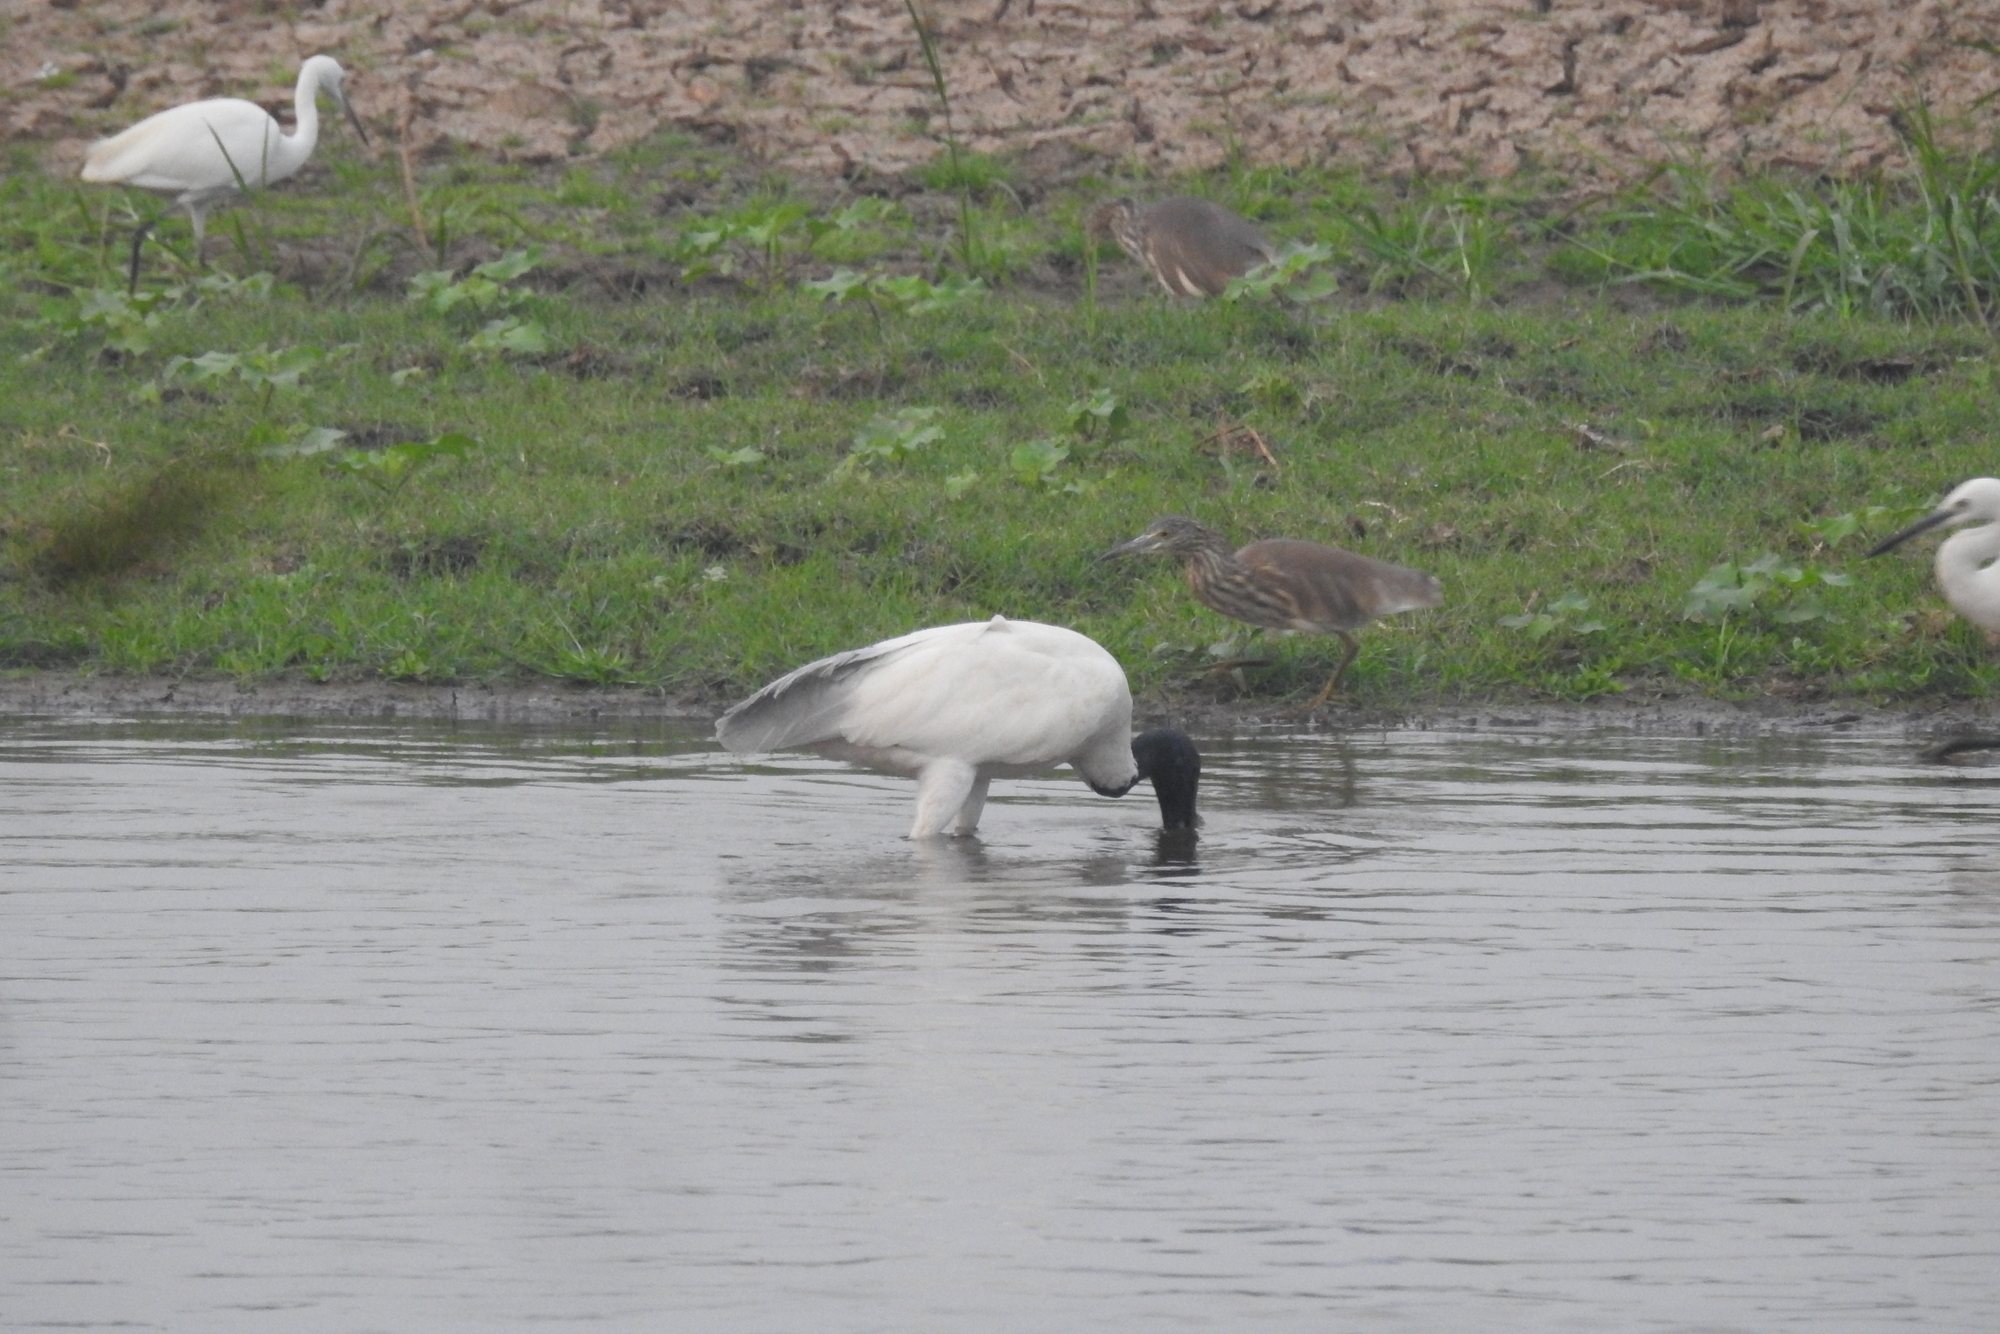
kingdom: Animalia
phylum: Chordata
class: Aves
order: Pelecaniformes
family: Threskiornithidae
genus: Threskiornis
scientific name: Threskiornis melanocephalus
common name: Black-headed ibis
